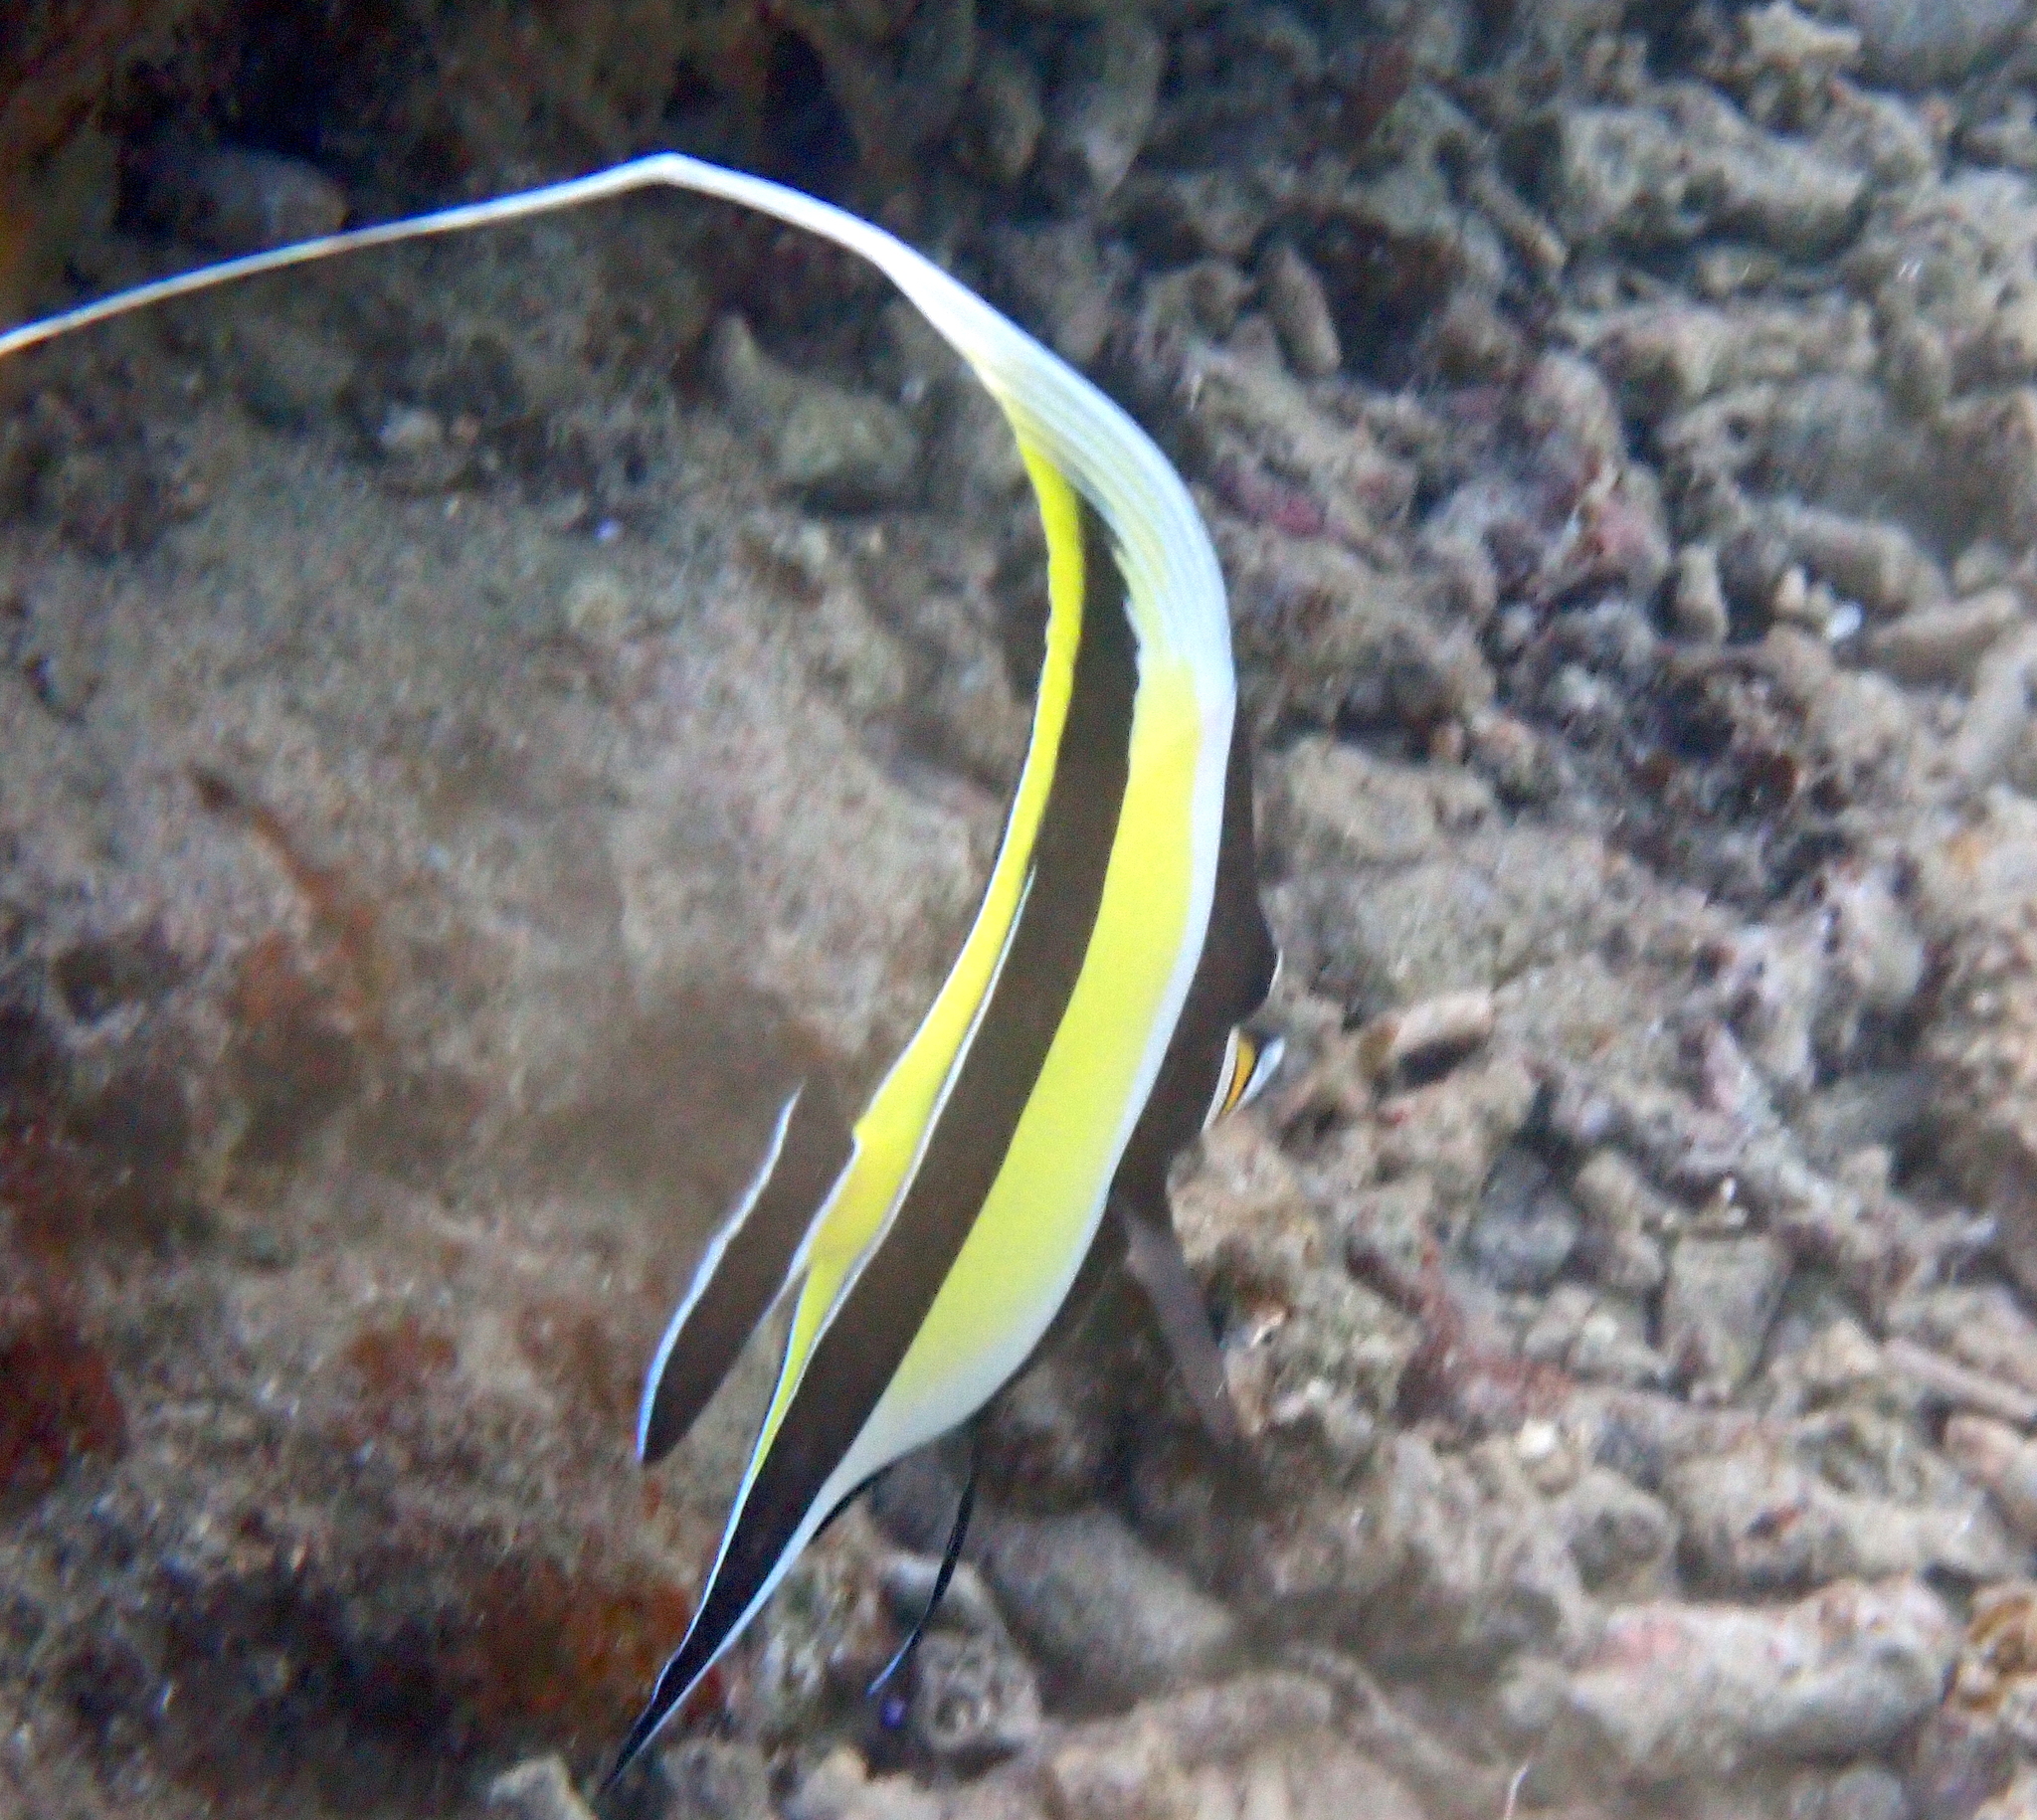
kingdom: Animalia
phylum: Chordata
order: Perciformes
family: Zanclidae
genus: Zanclus
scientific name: Zanclus cornutus
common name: Moorish idol
